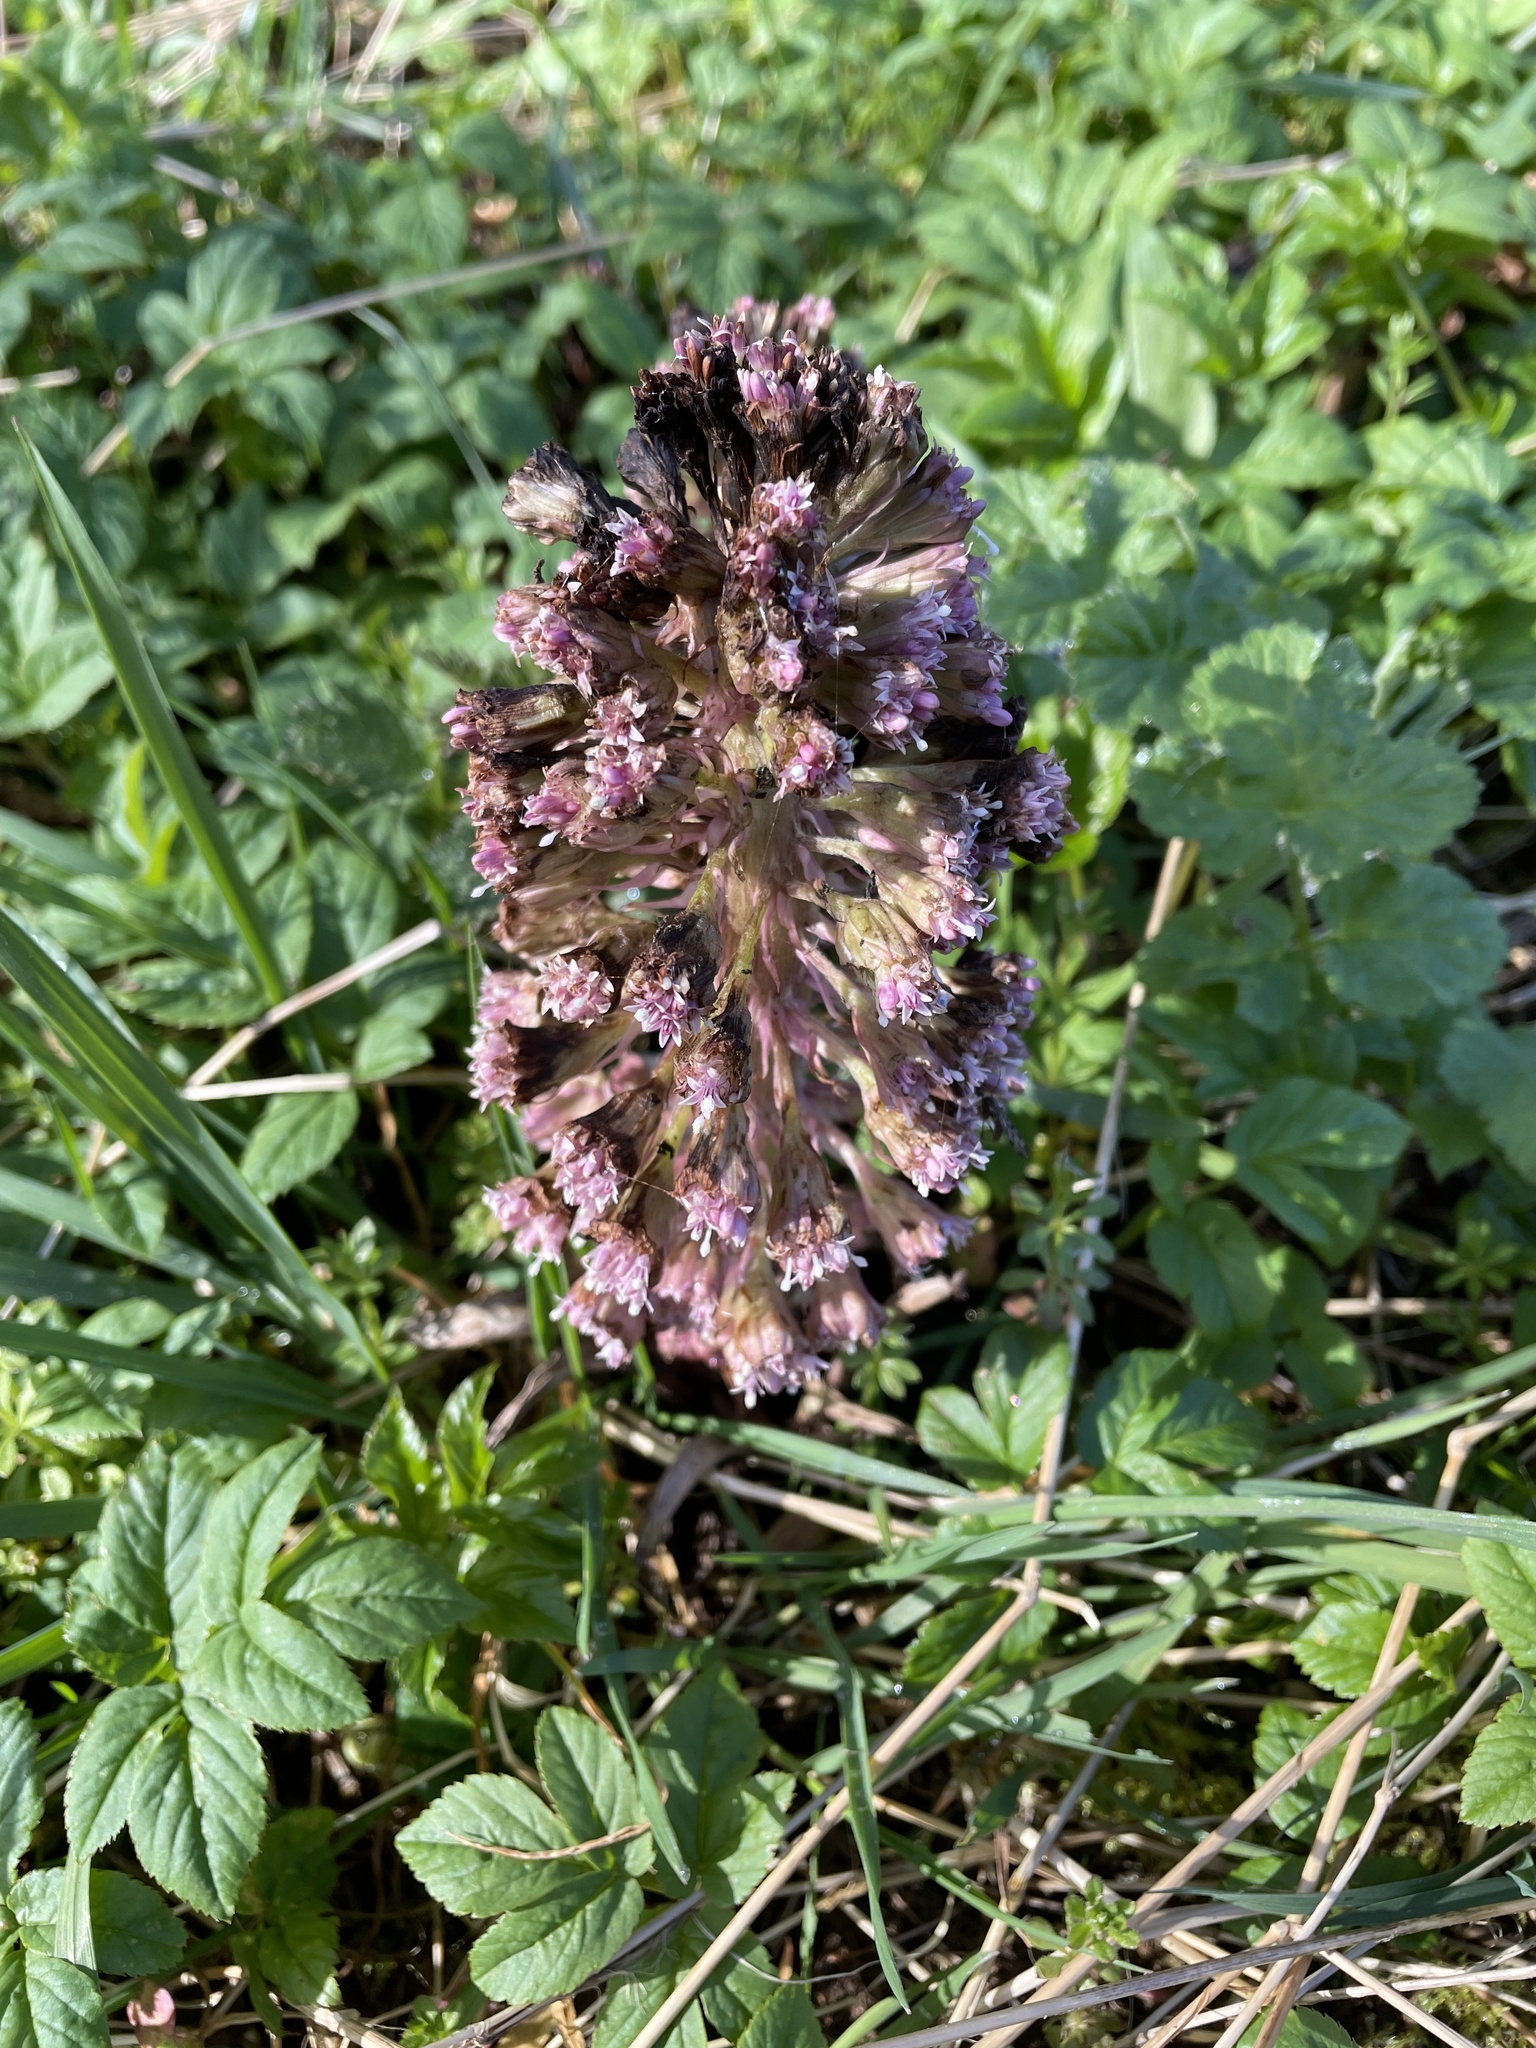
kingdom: Plantae
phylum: Tracheophyta
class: Magnoliopsida
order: Asterales
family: Asteraceae
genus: Petasites
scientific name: Petasites hybridus
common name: Butterbur
